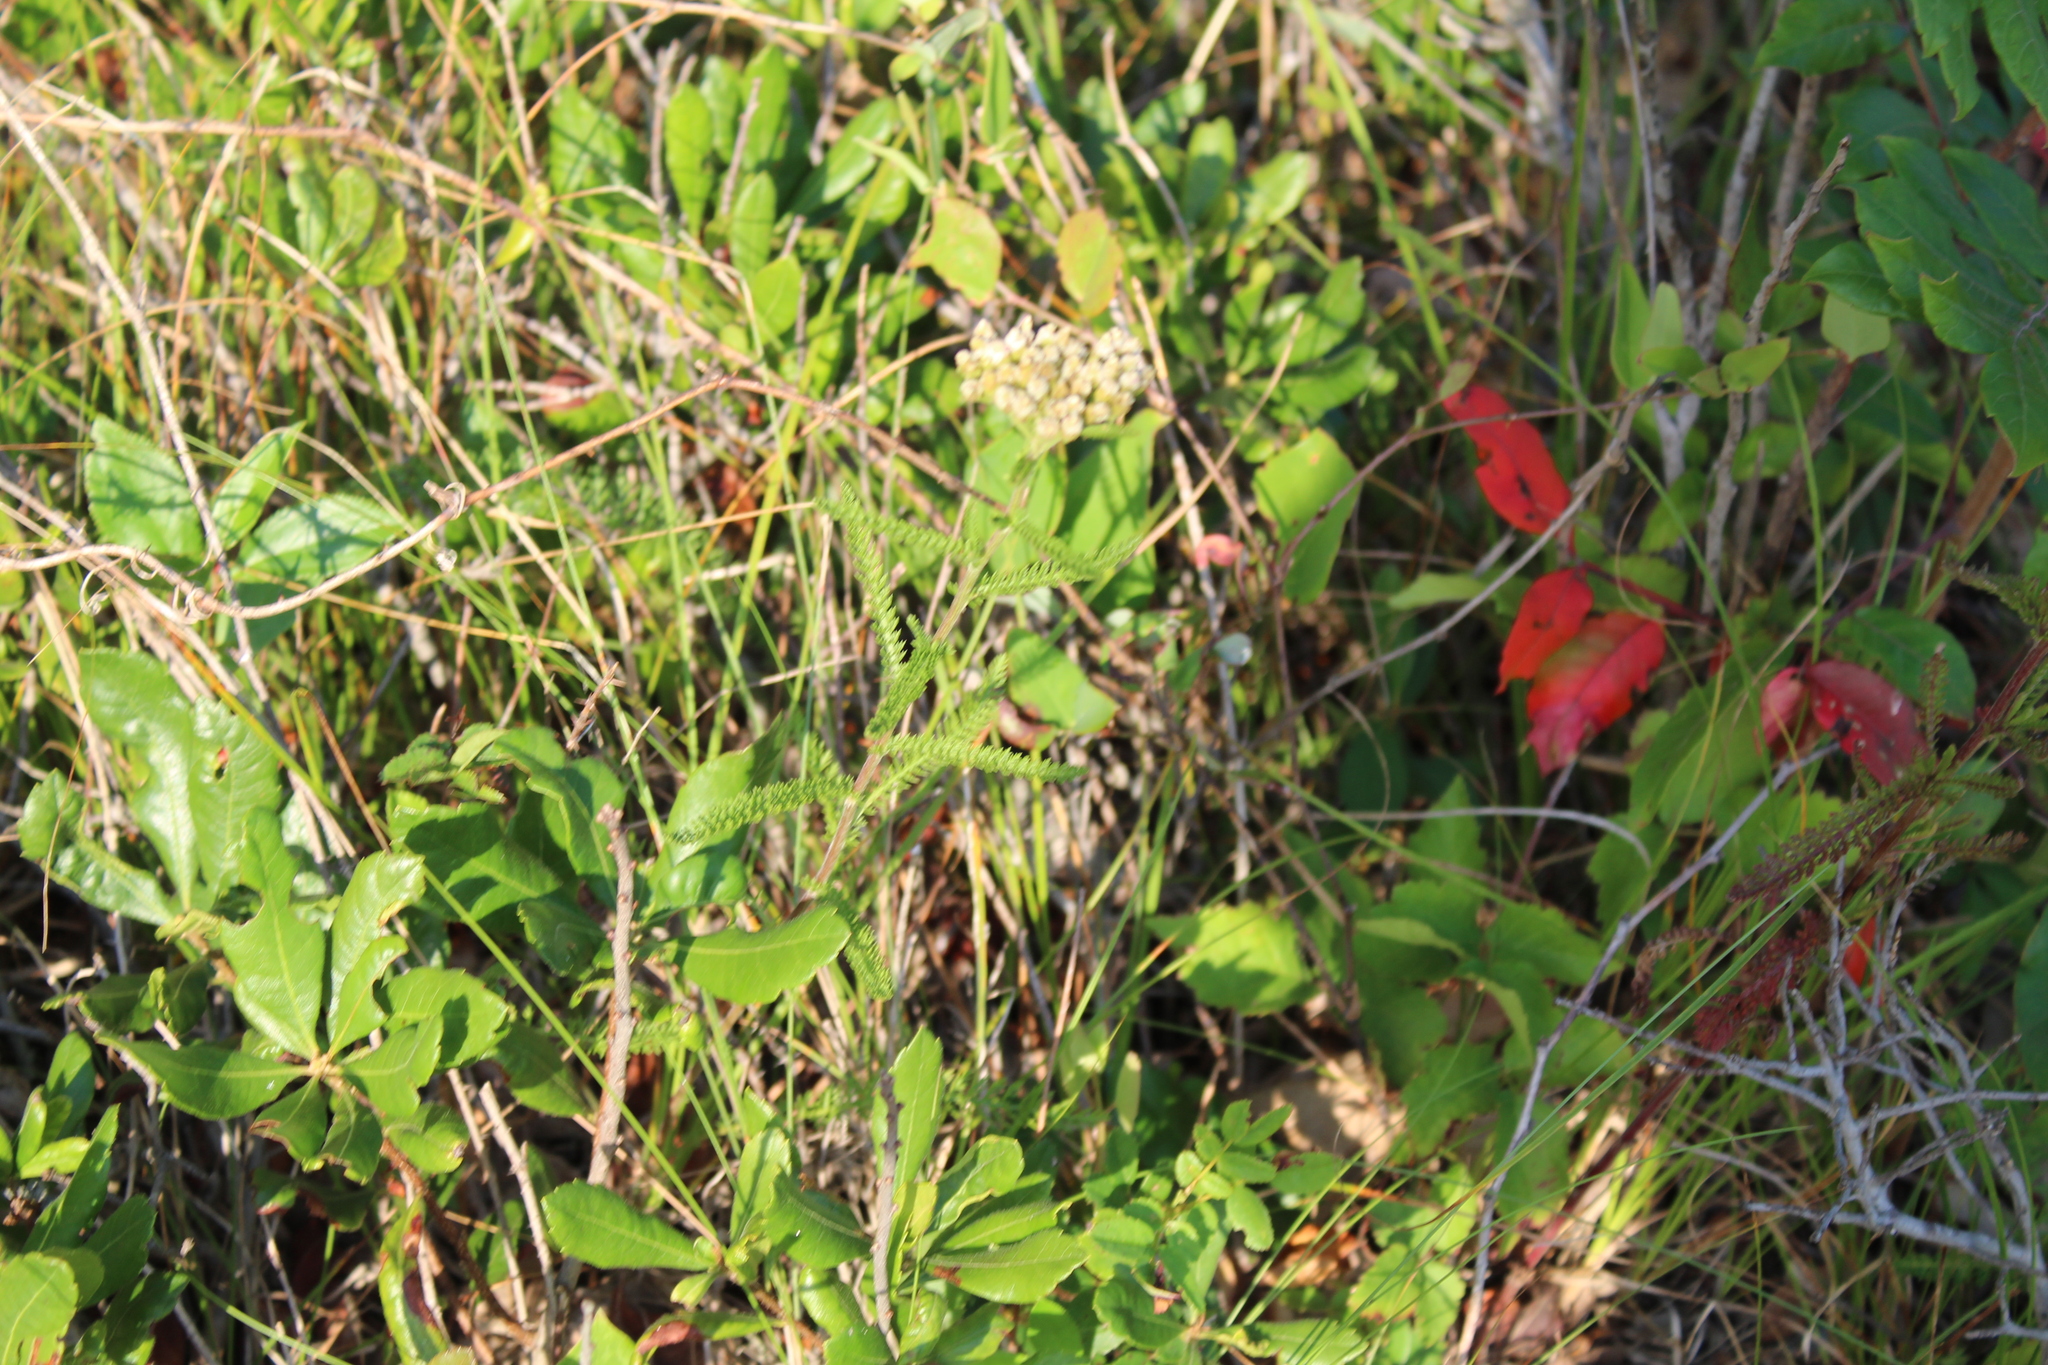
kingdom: Plantae
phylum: Tracheophyta
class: Magnoliopsida
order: Asterales
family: Asteraceae
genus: Achillea
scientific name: Achillea millefolium
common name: Yarrow
